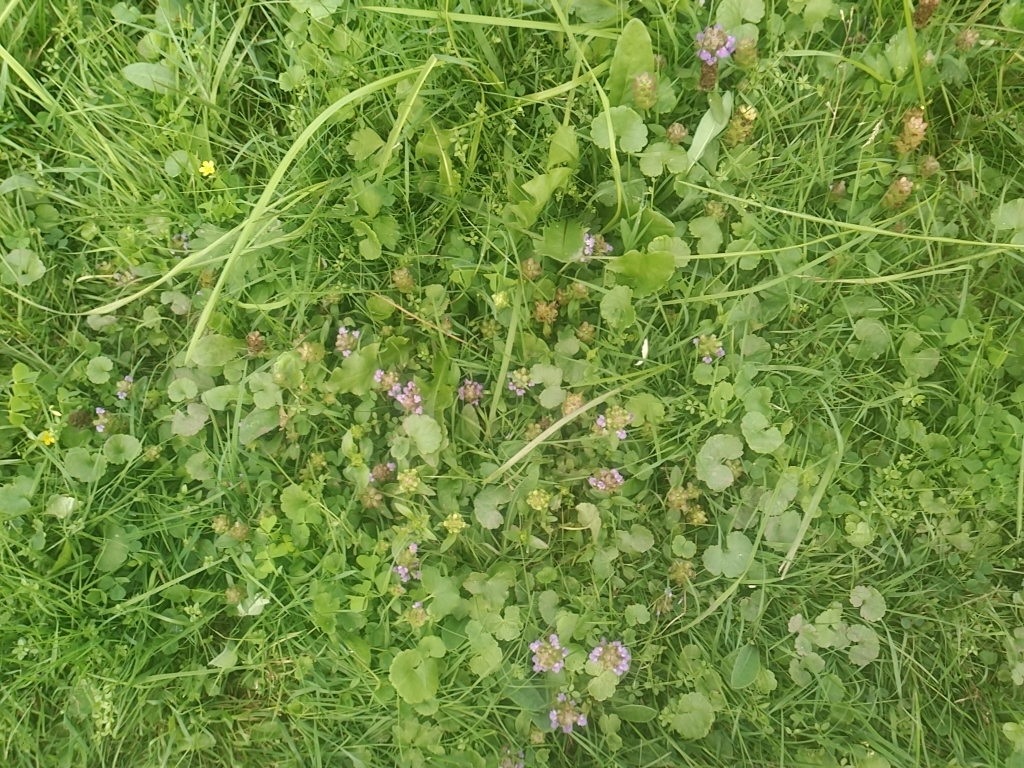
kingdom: Plantae
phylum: Tracheophyta
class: Magnoliopsida
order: Lamiales
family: Lamiaceae
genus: Prunella
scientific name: Prunella vulgaris
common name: Heal-all
